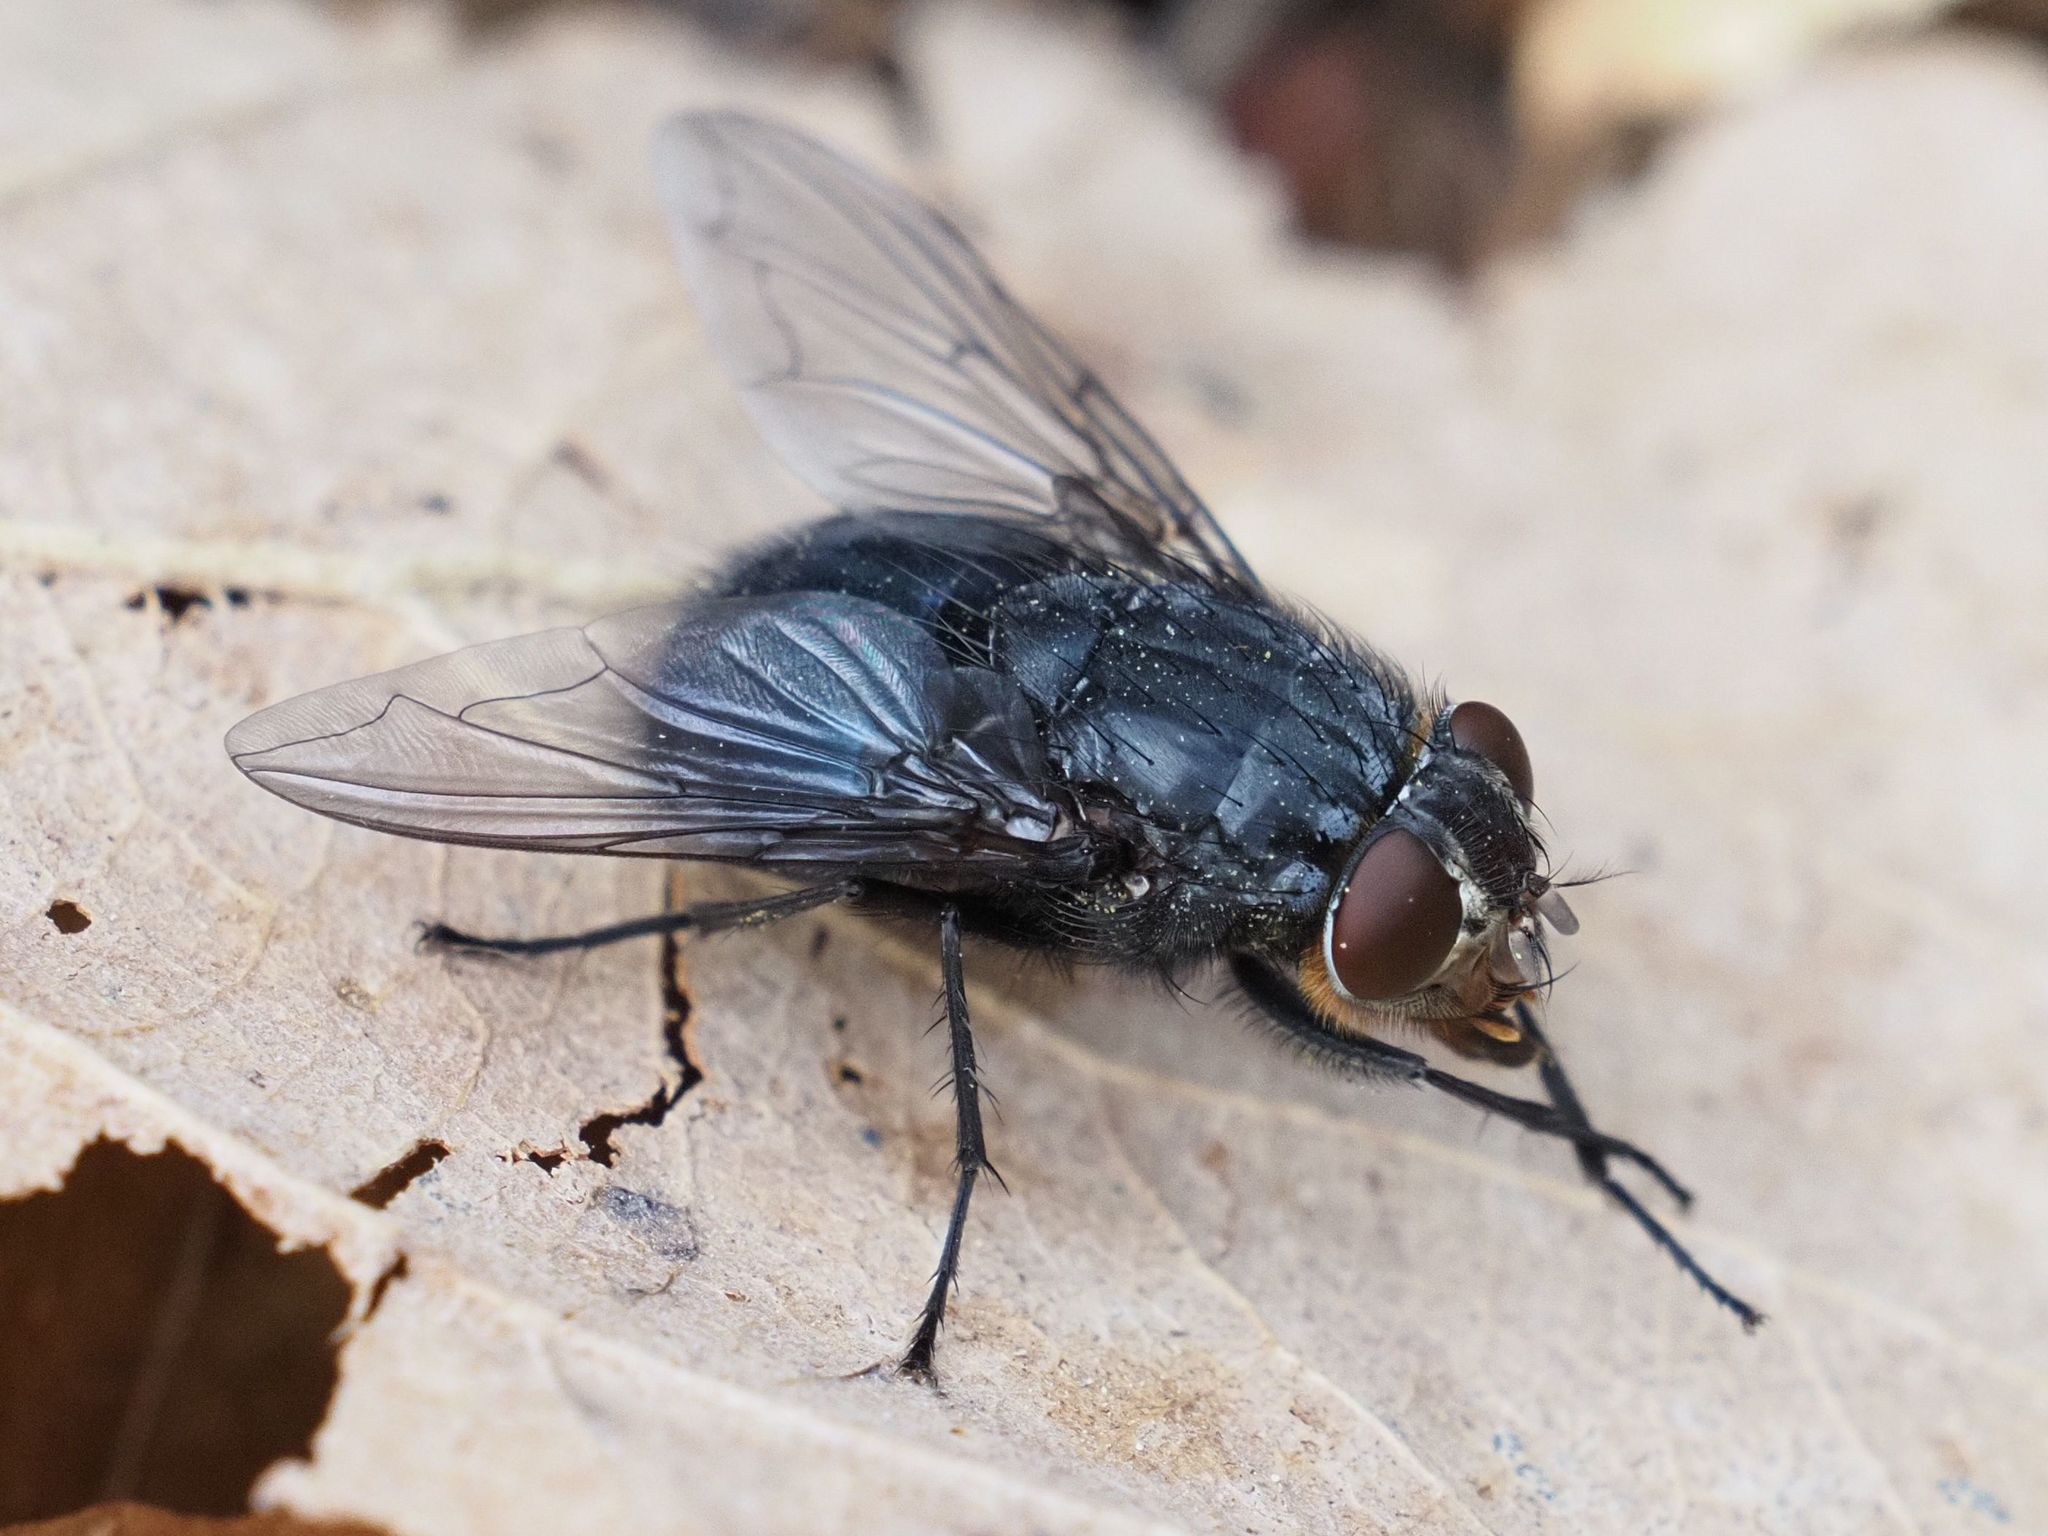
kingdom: Animalia
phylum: Arthropoda
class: Insecta
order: Diptera
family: Calliphoridae
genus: Calliphora
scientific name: Calliphora vomitoria
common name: Blue bottle fly
